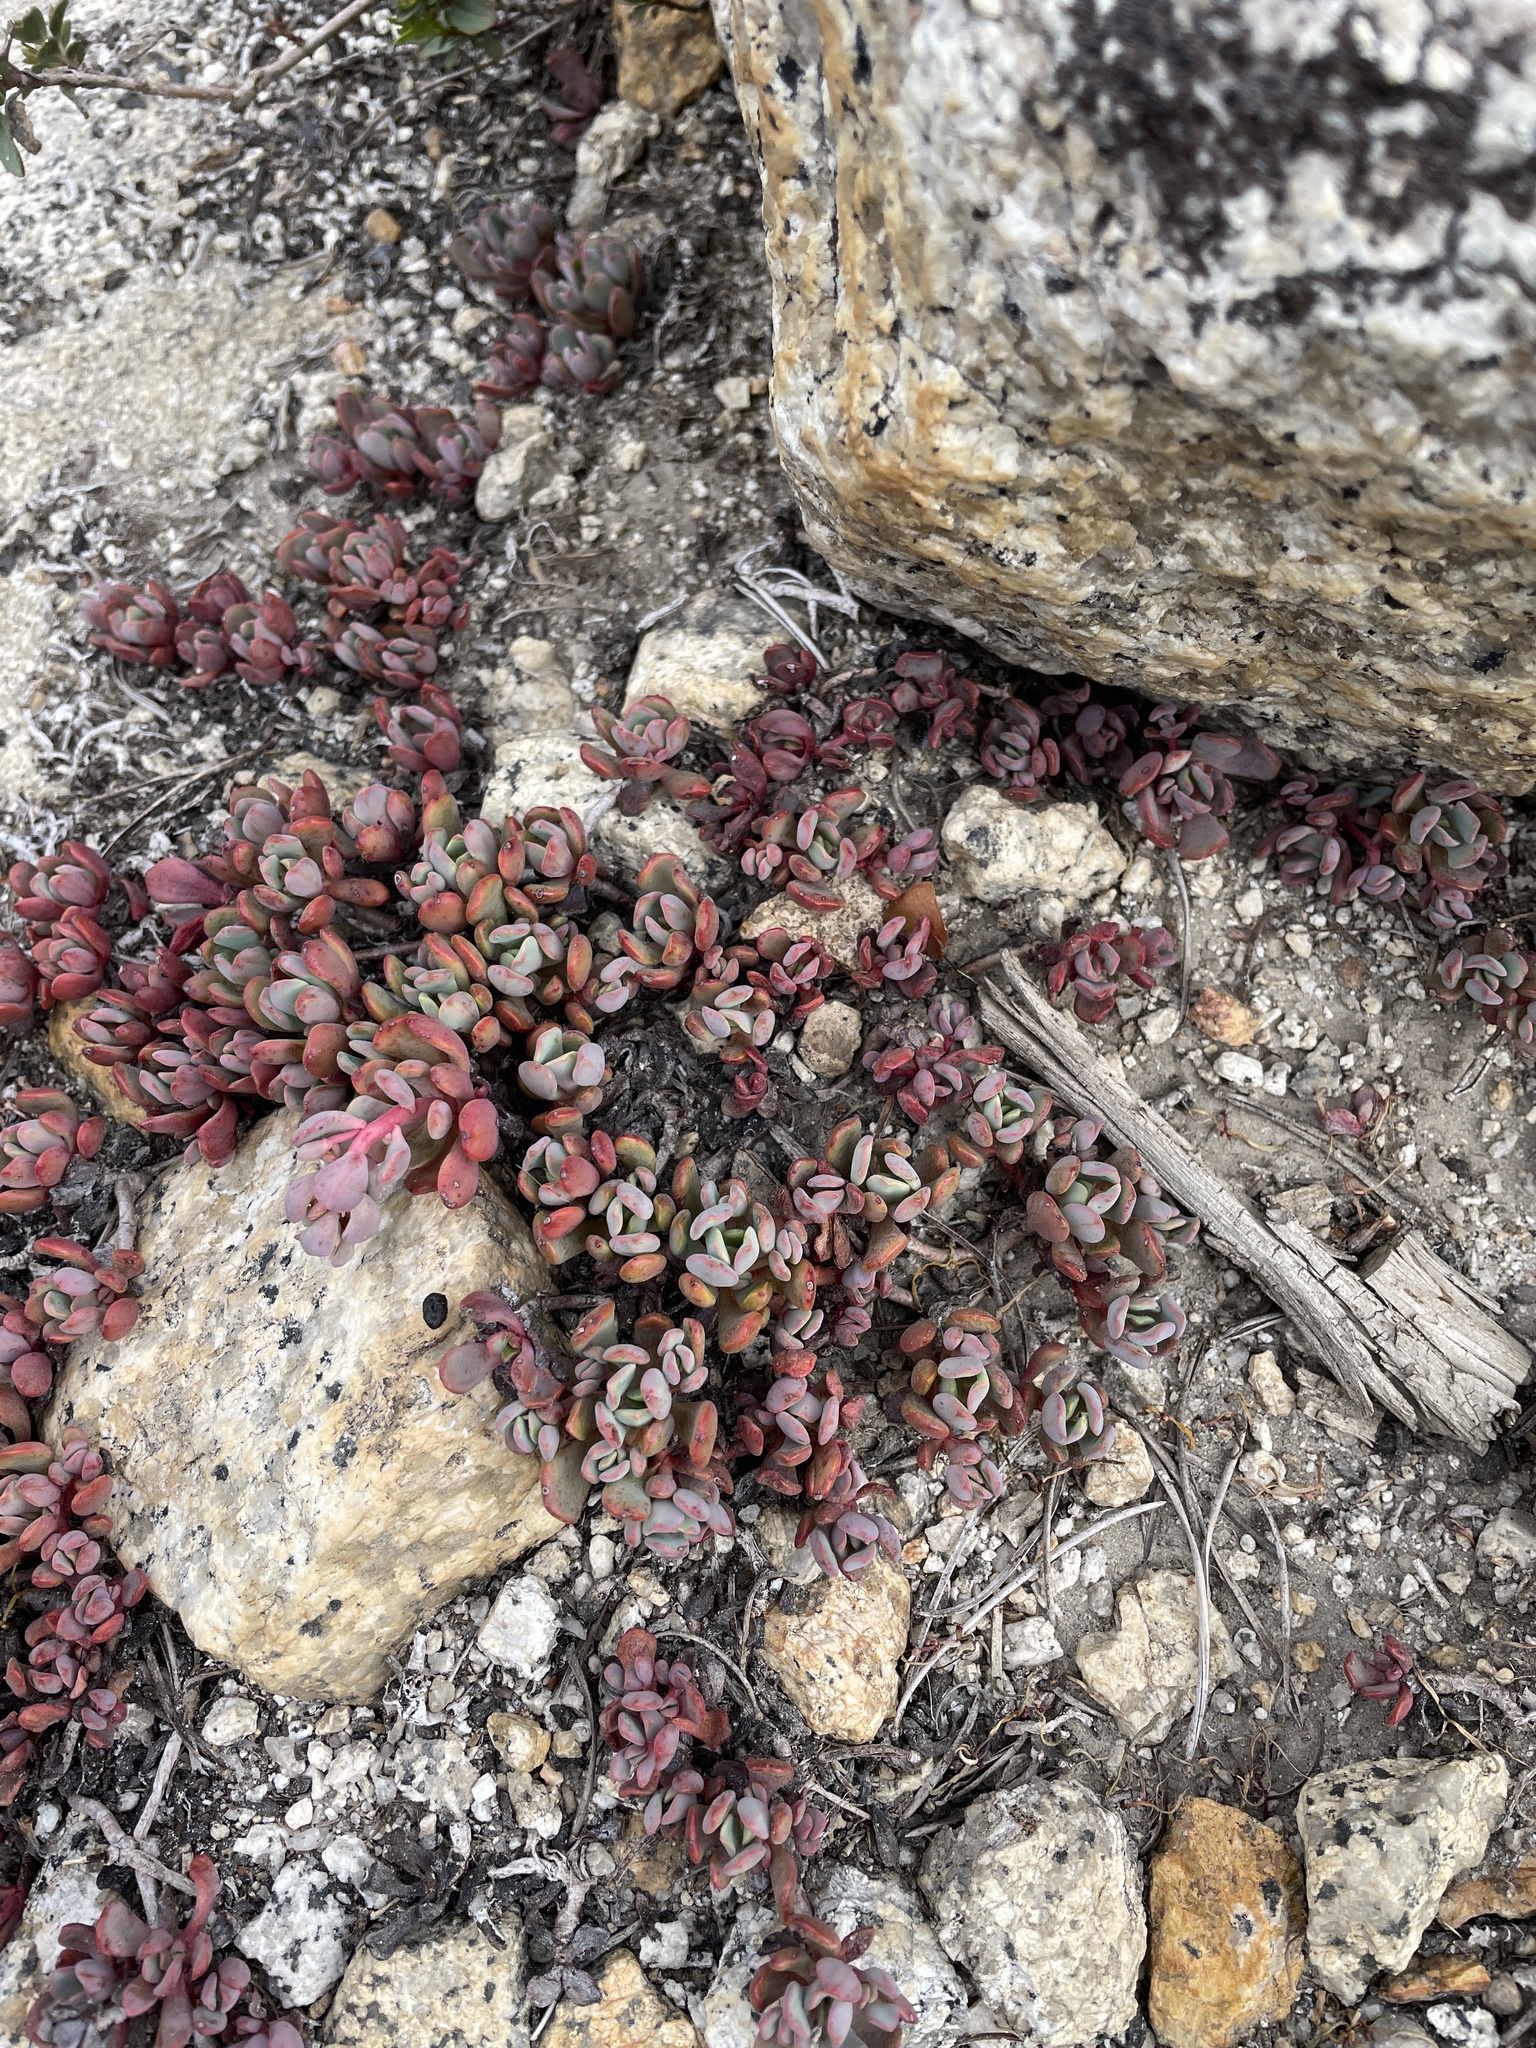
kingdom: Plantae
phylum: Tracheophyta
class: Magnoliopsida
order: Saxifragales
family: Crassulaceae
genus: Sedum
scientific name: Sedum obtusatum
